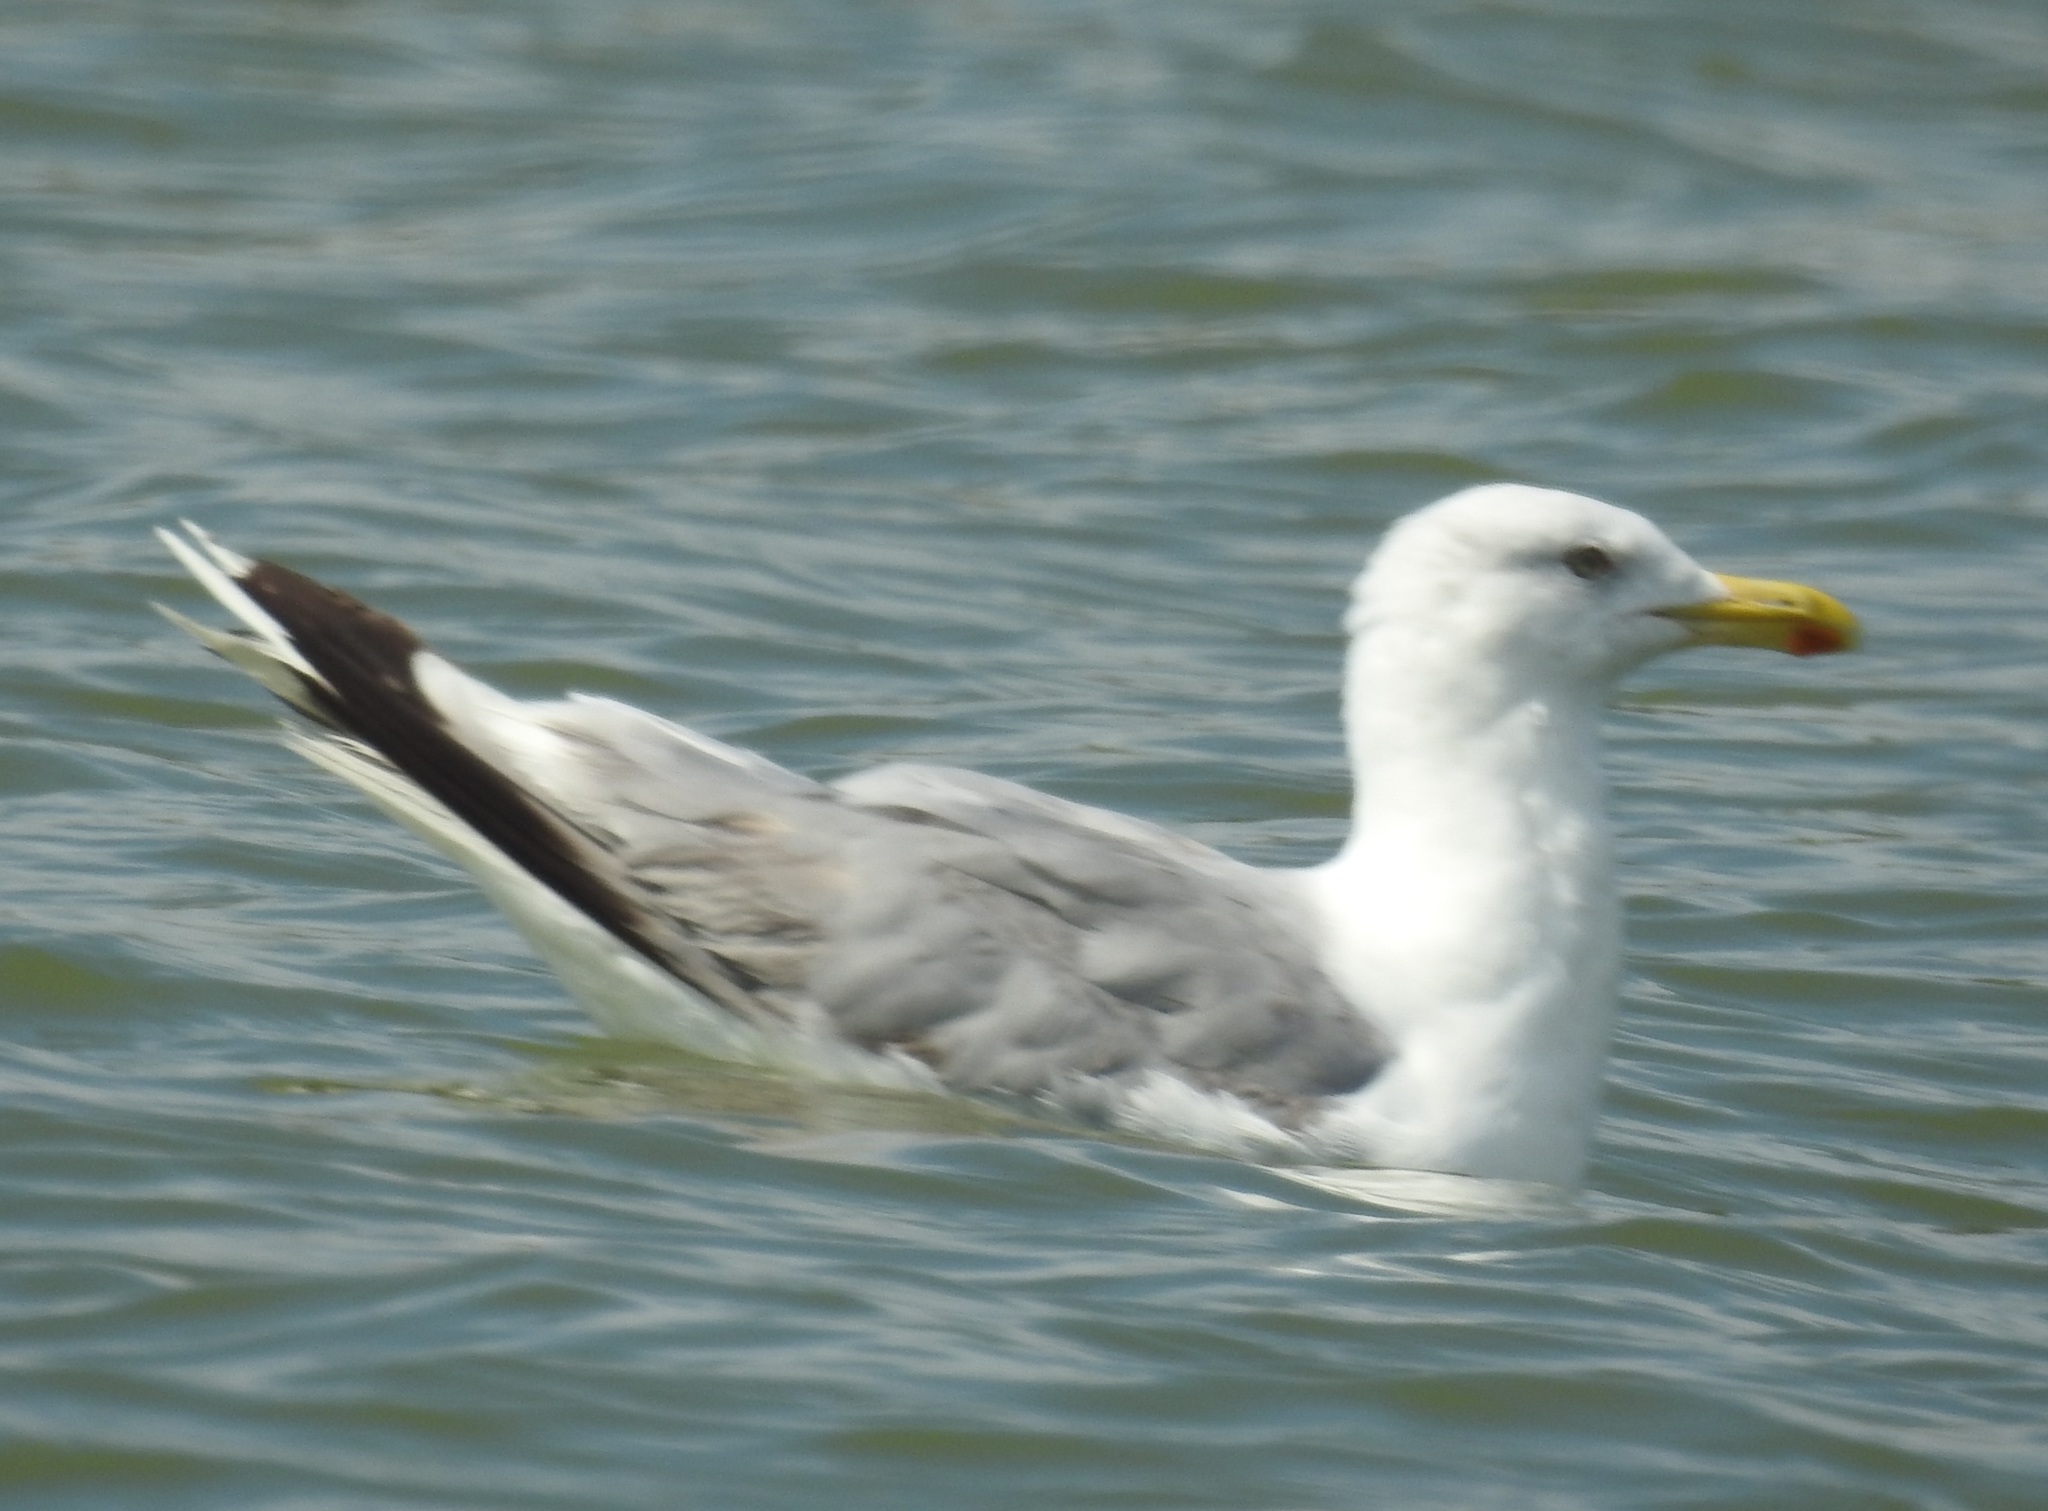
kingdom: Animalia
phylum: Chordata
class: Aves
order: Charadriiformes
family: Laridae
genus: Larus
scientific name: Larus cachinnans
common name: Caspian gull
